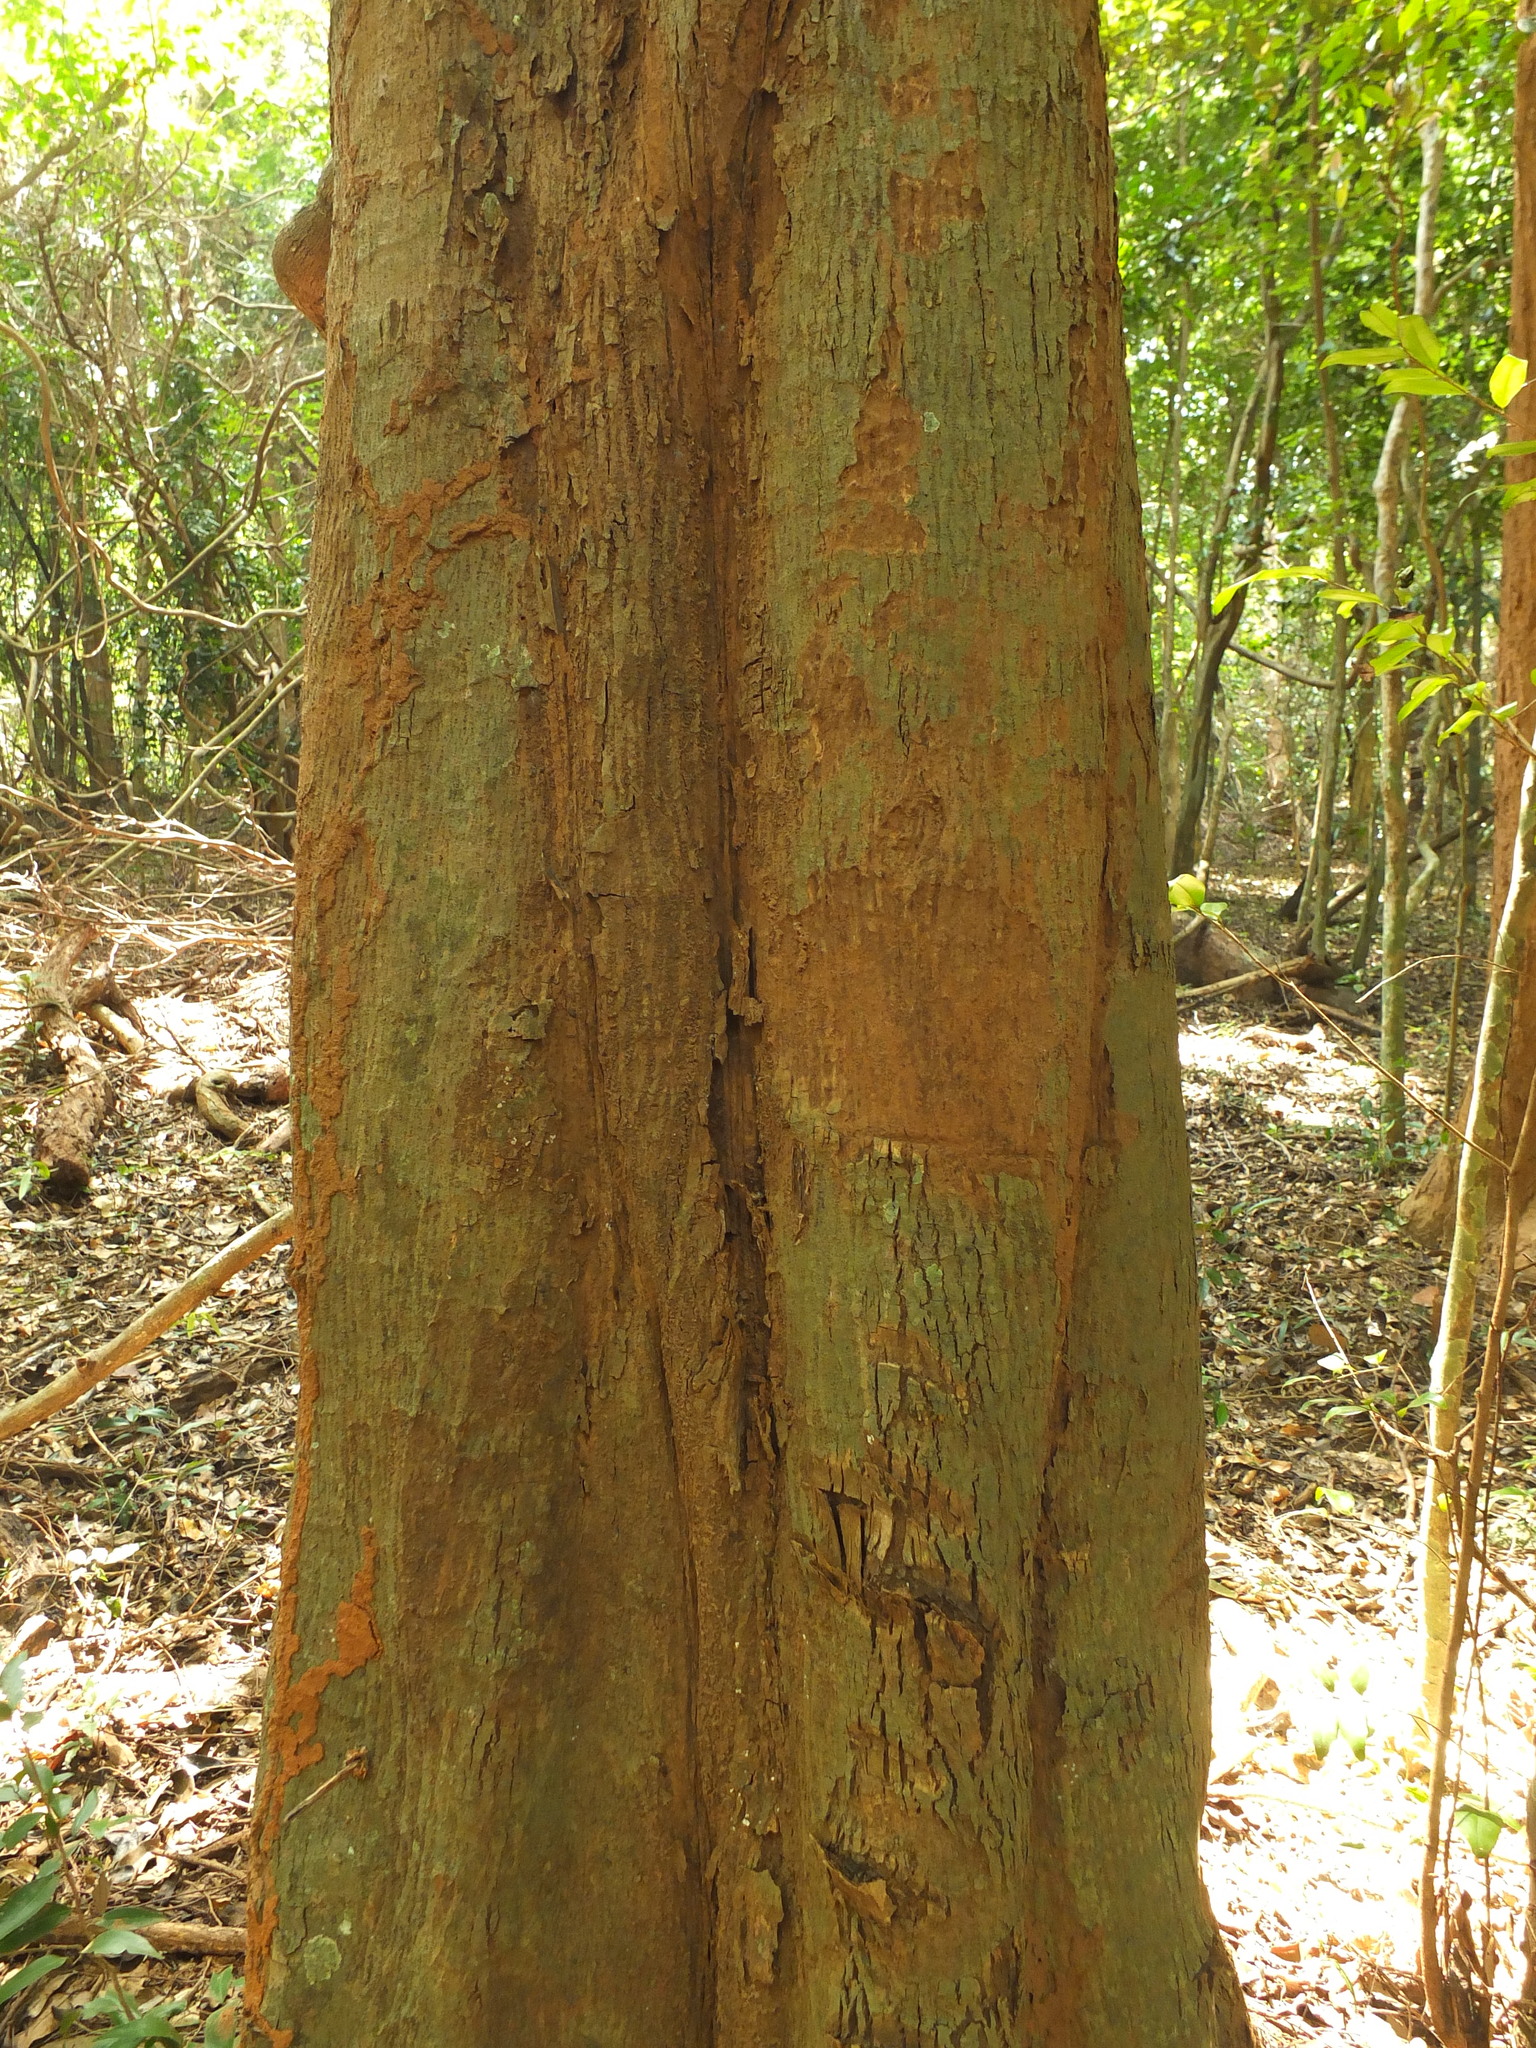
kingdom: Plantae
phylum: Tracheophyta
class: Magnoliopsida
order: Magnoliales
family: Annonaceae
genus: Alphonsea
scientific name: Alphonsea lutea
